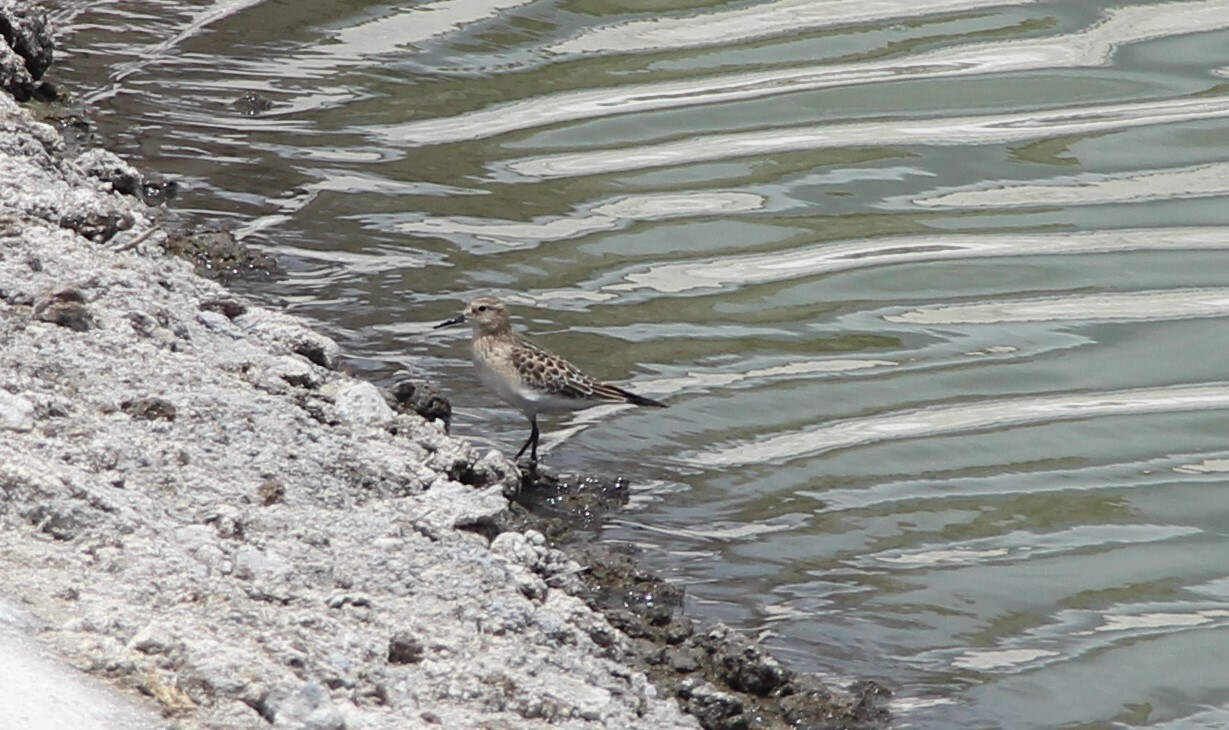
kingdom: Animalia
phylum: Chordata
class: Aves
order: Charadriiformes
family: Scolopacidae
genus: Calidris
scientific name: Calidris bairdii
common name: Baird's sandpiper
